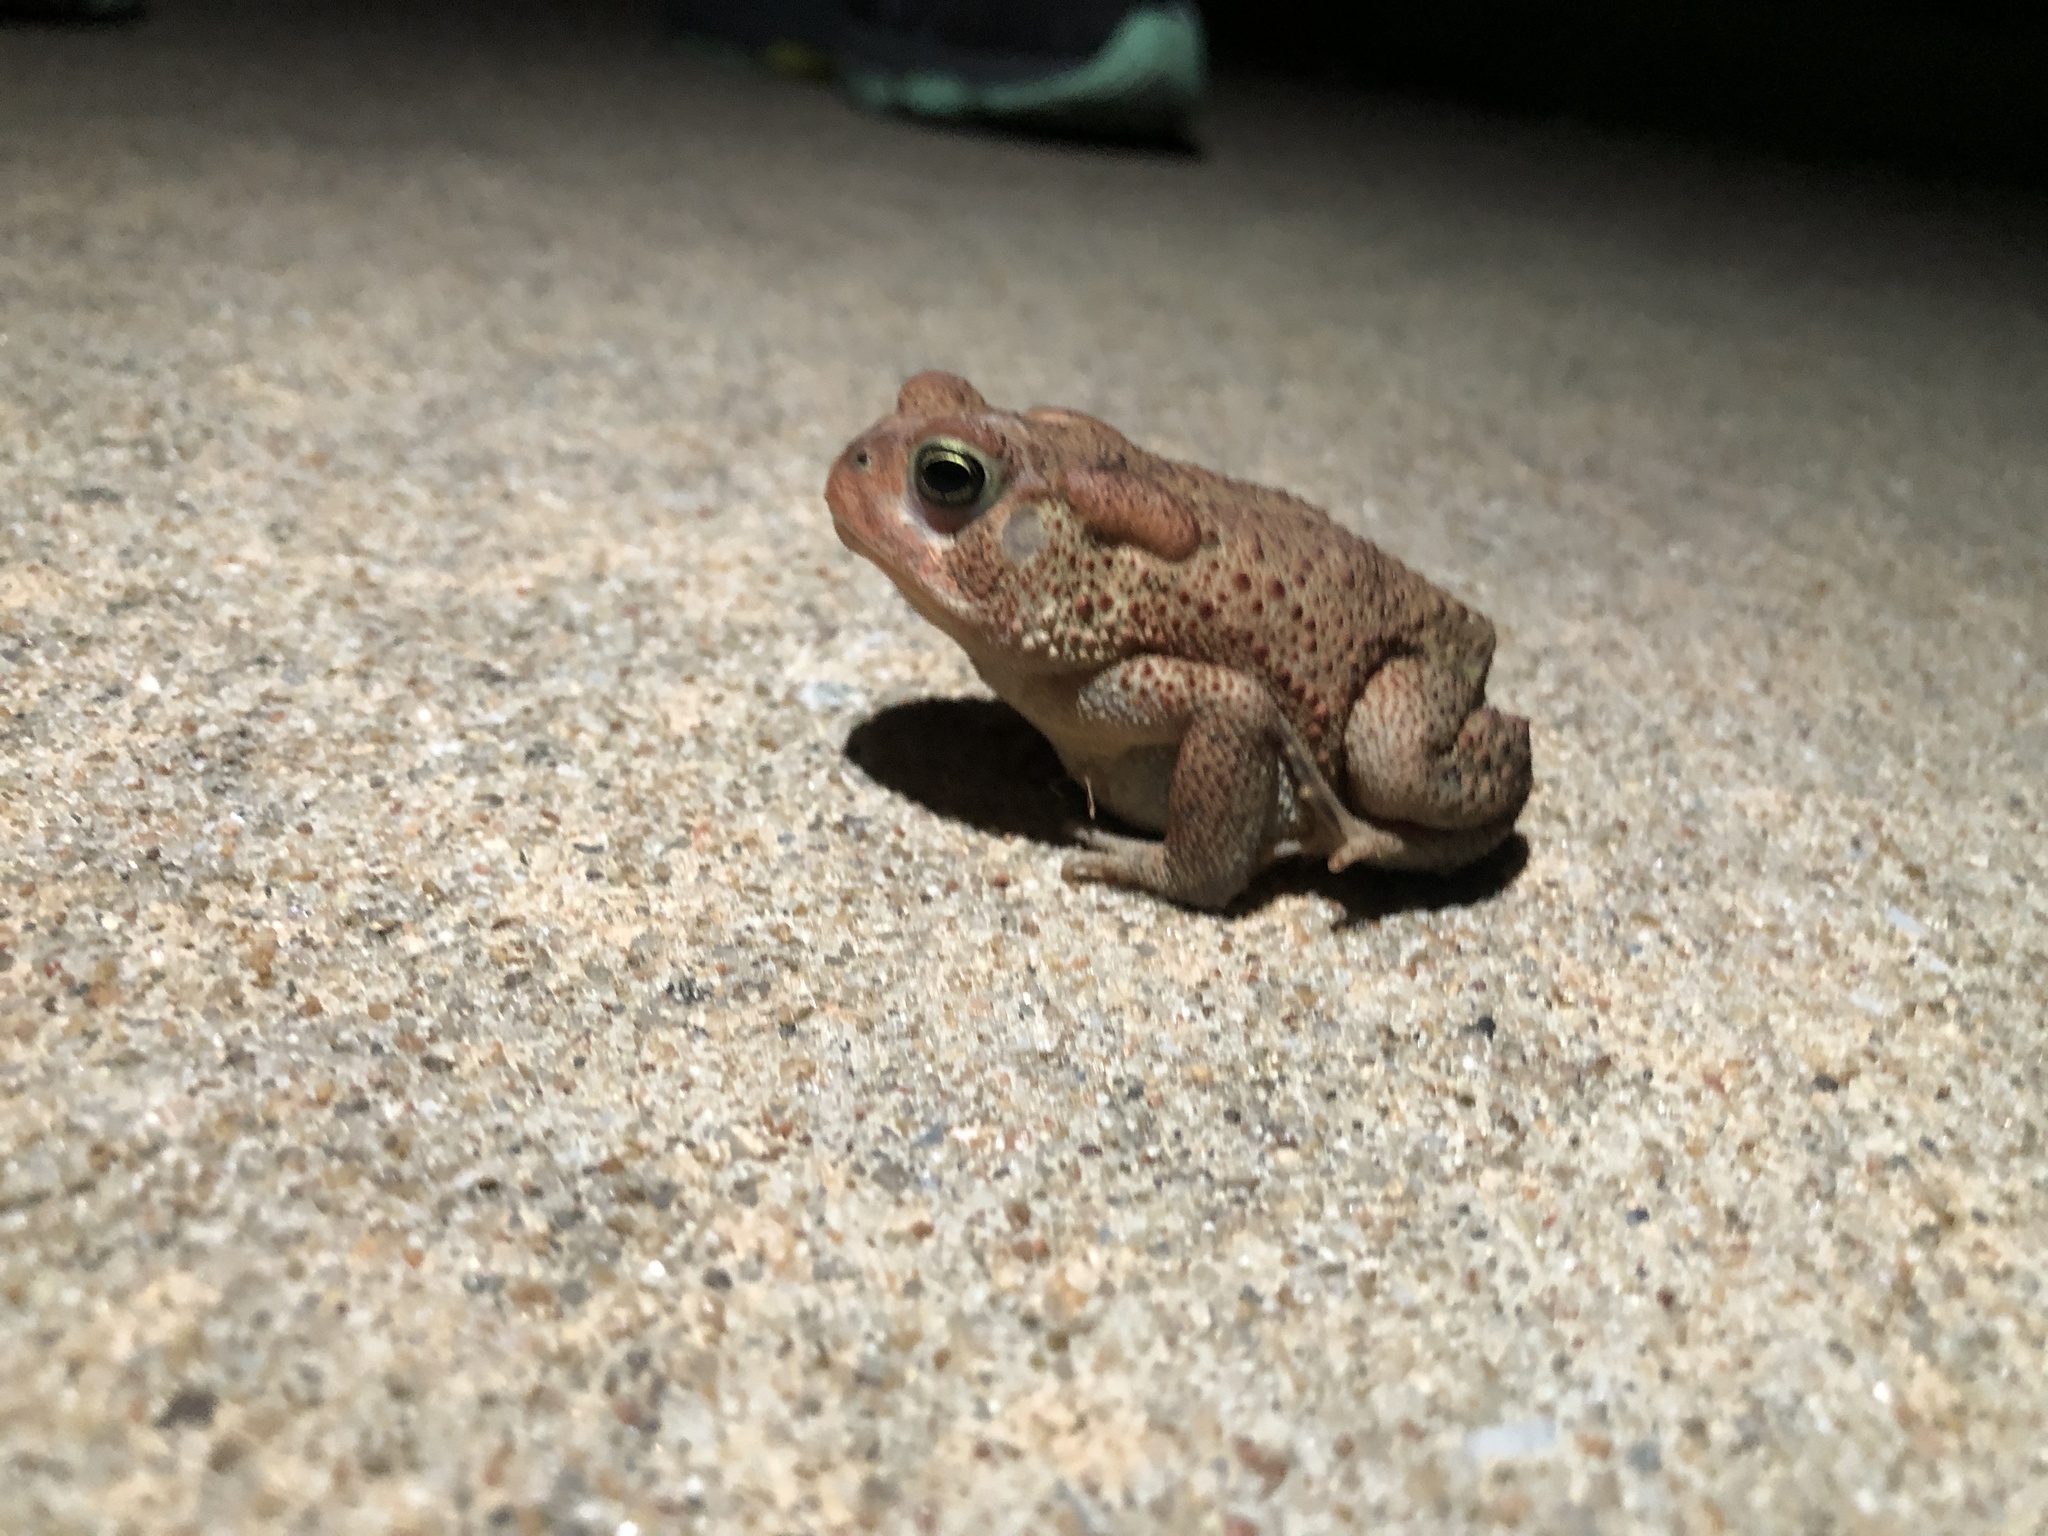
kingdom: Animalia
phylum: Chordata
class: Amphibia
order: Anura
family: Bufonidae
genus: Anaxyrus
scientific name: Anaxyrus americanus
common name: American toad
